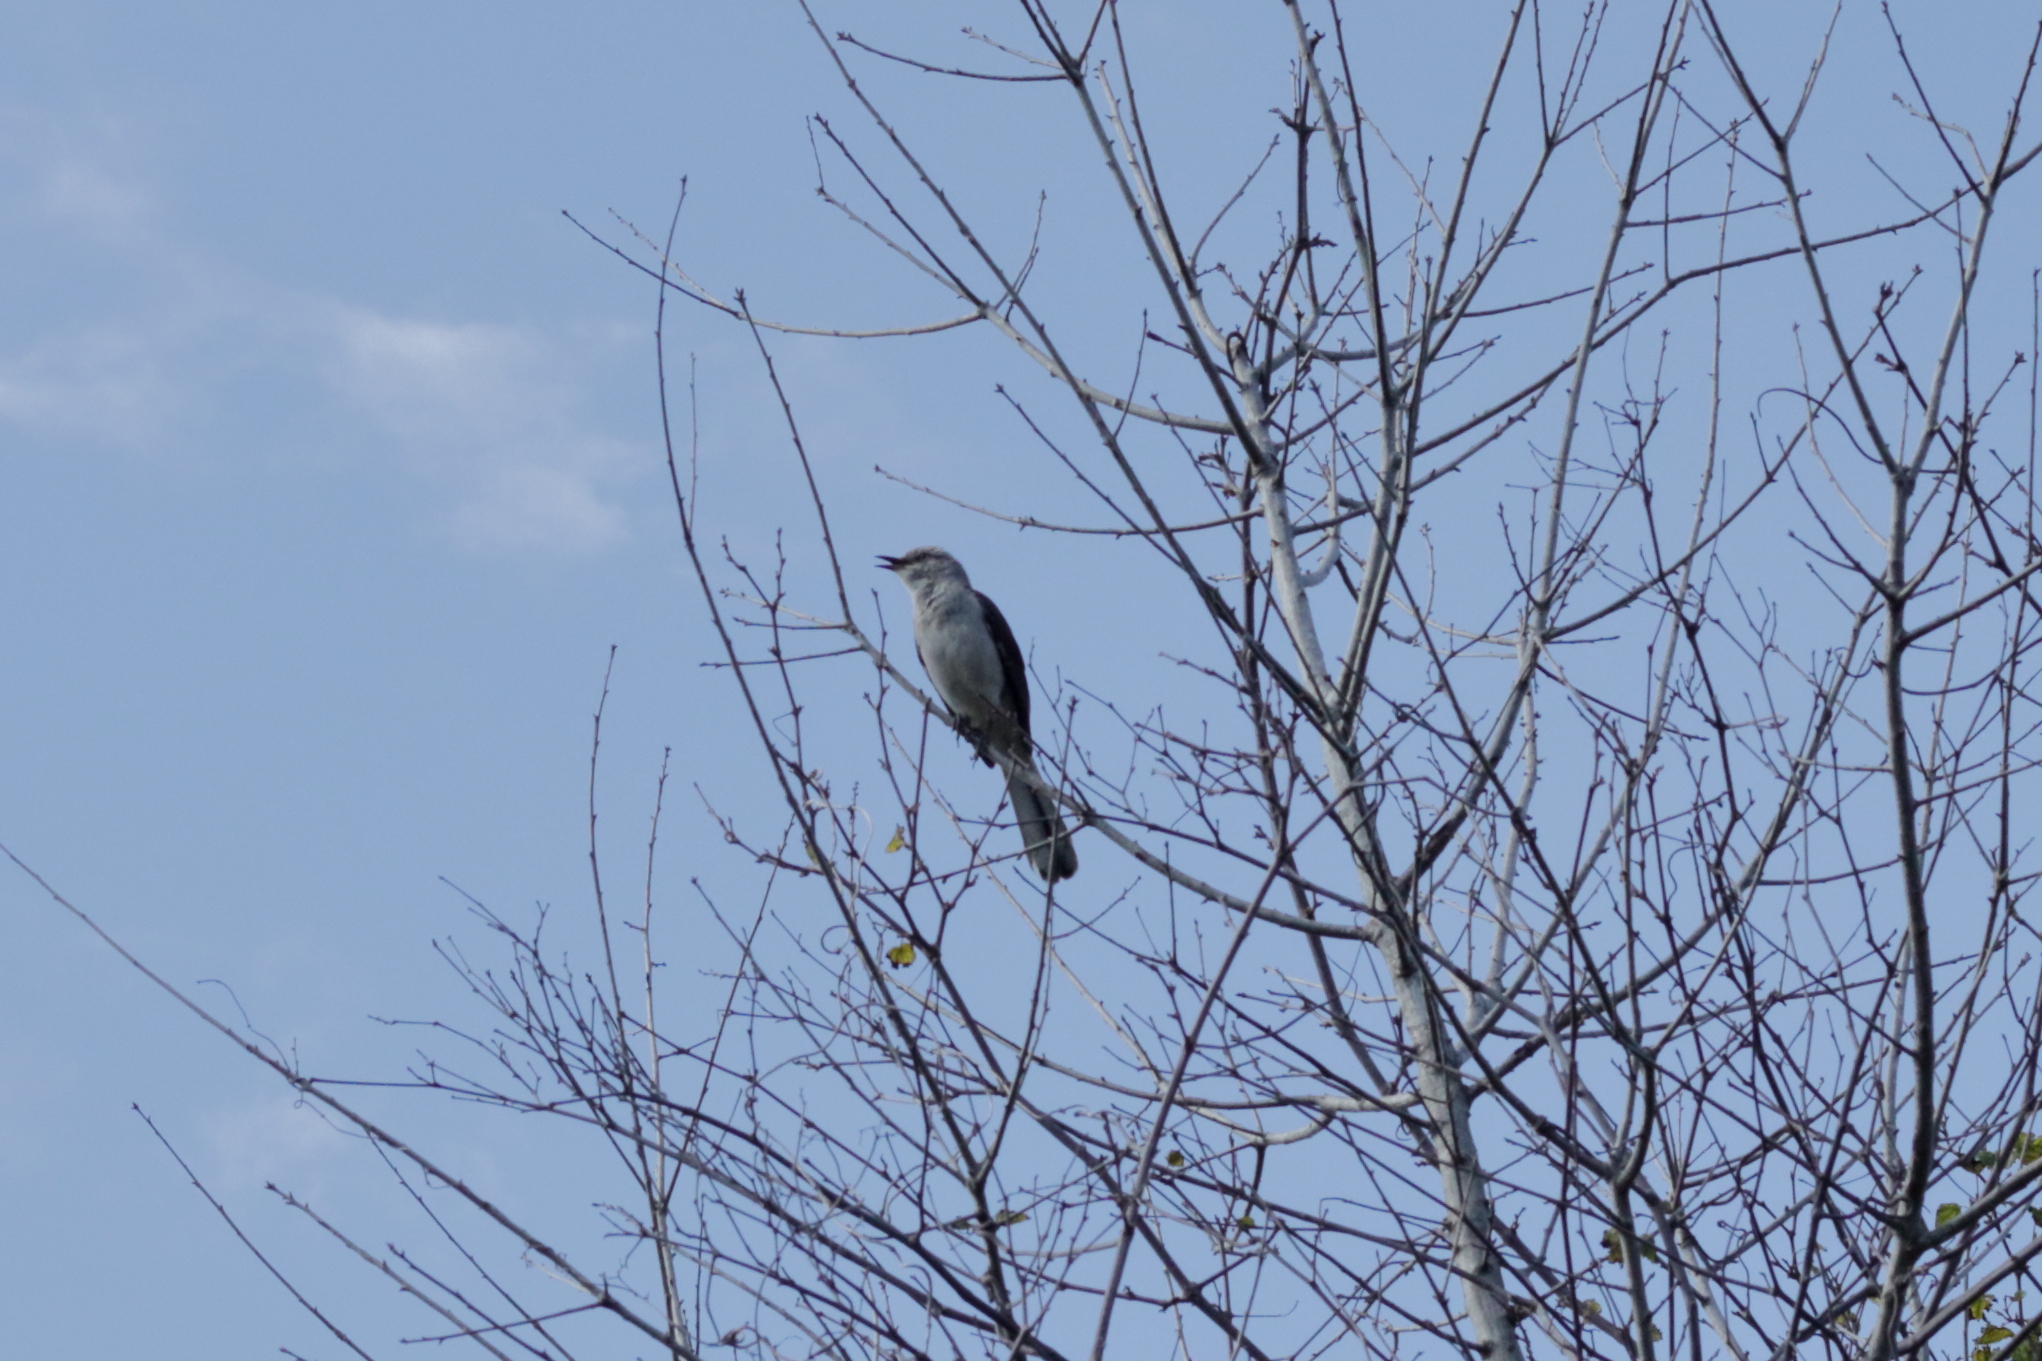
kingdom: Animalia
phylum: Chordata
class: Aves
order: Passeriformes
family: Mimidae
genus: Mimus
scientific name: Mimus polyglottos
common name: Northern mockingbird
